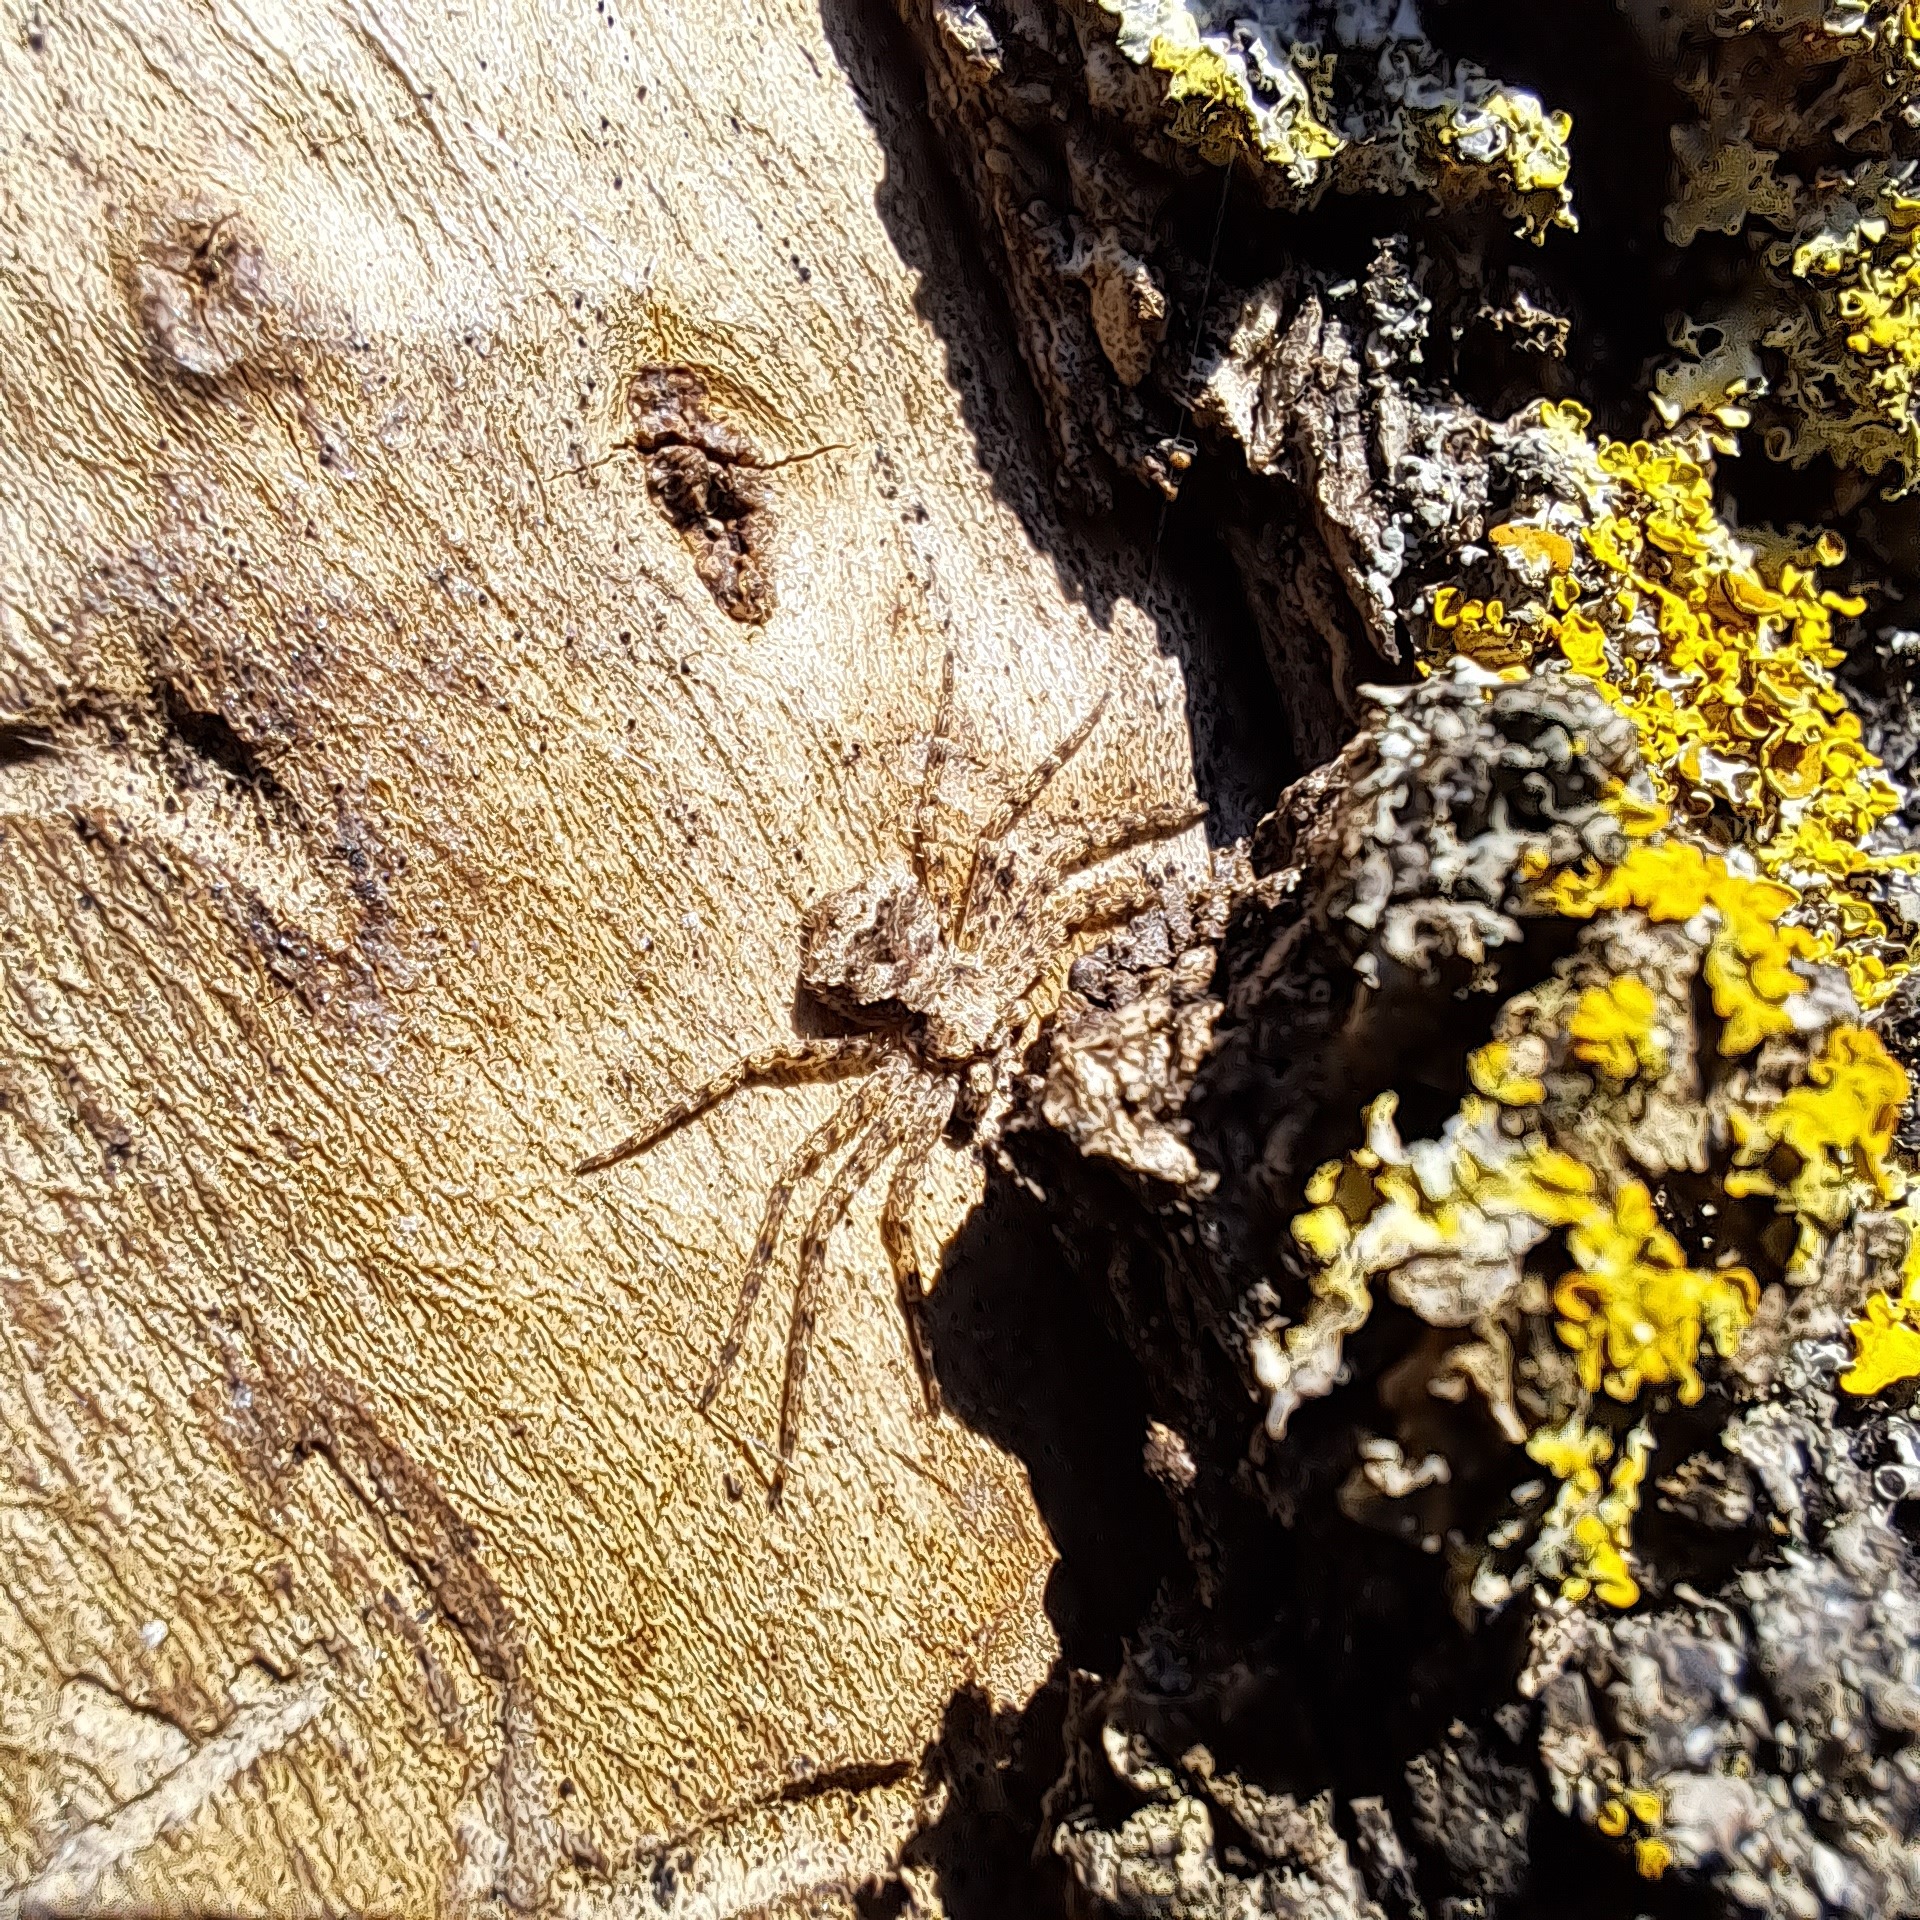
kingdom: Animalia
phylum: Arthropoda
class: Arachnida
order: Araneae
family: Philodromidae
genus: Philodromus
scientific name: Philodromus poecilus
